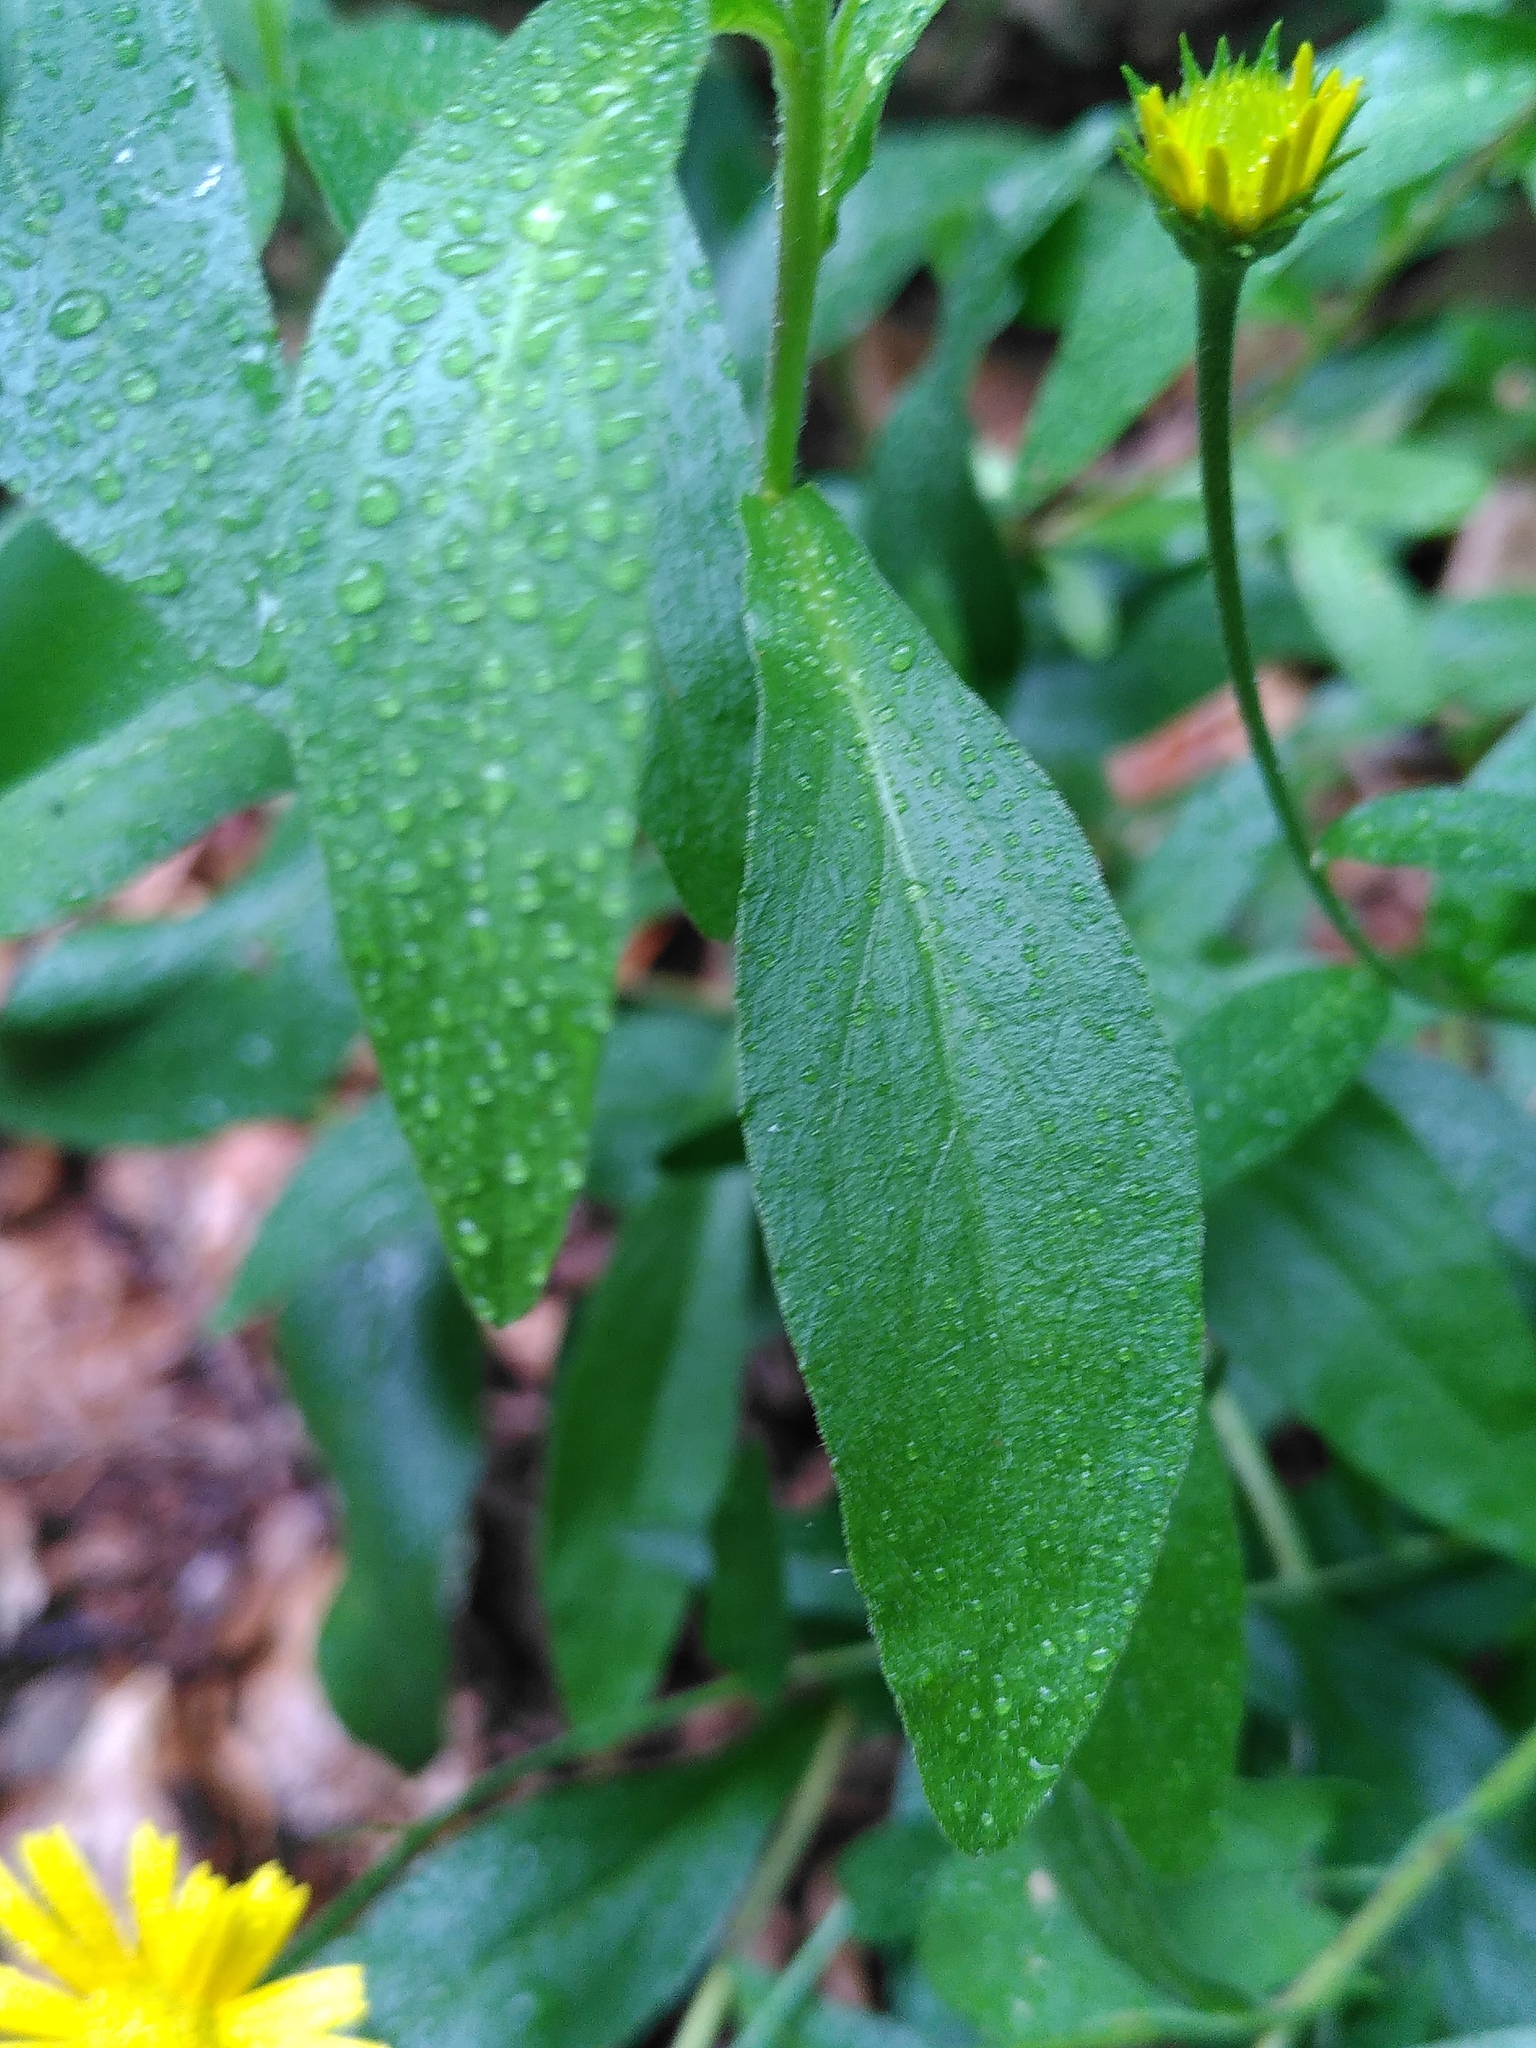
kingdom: Plantae
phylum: Tracheophyta
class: Magnoliopsida
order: Asterales
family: Asteraceae
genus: Buphthalmum
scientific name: Buphthalmum salicifolium
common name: Willow-leaved yellow-oxeye
